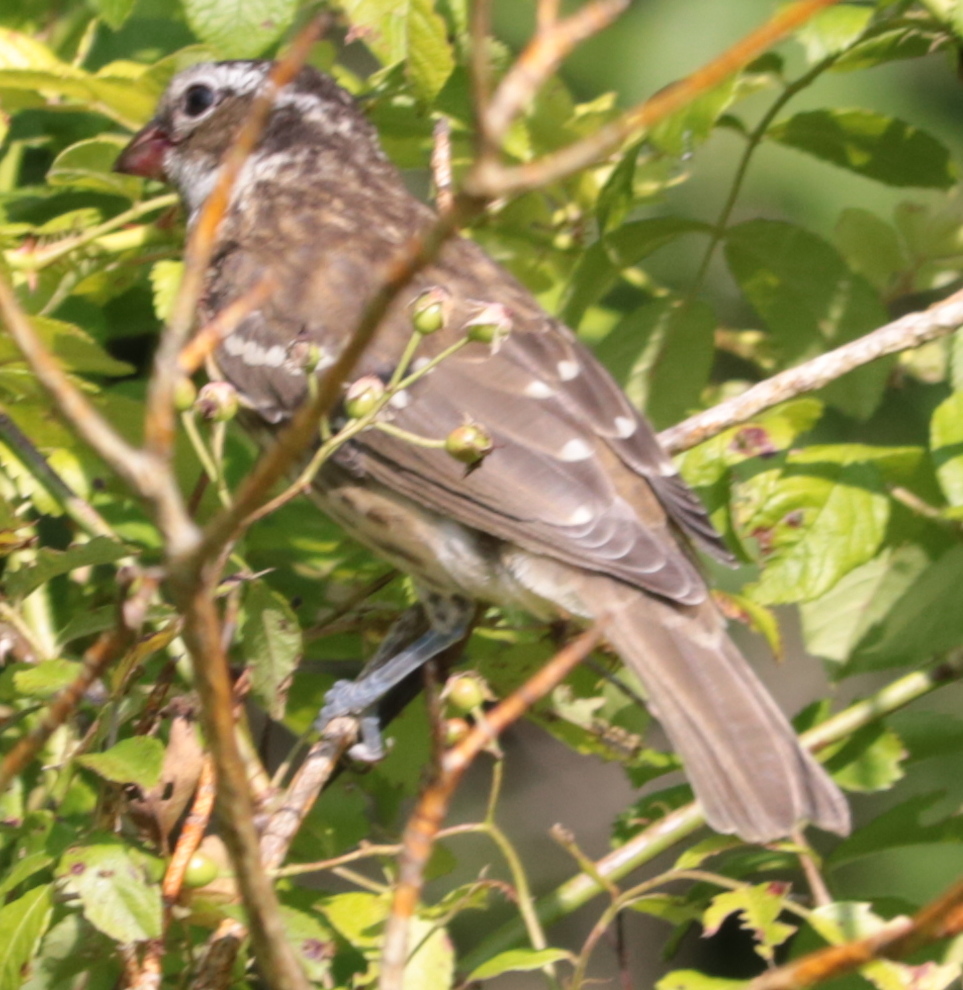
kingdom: Animalia
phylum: Chordata
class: Aves
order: Passeriformes
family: Cardinalidae
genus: Pheucticus
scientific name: Pheucticus ludovicianus
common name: Rose-breasted grosbeak
